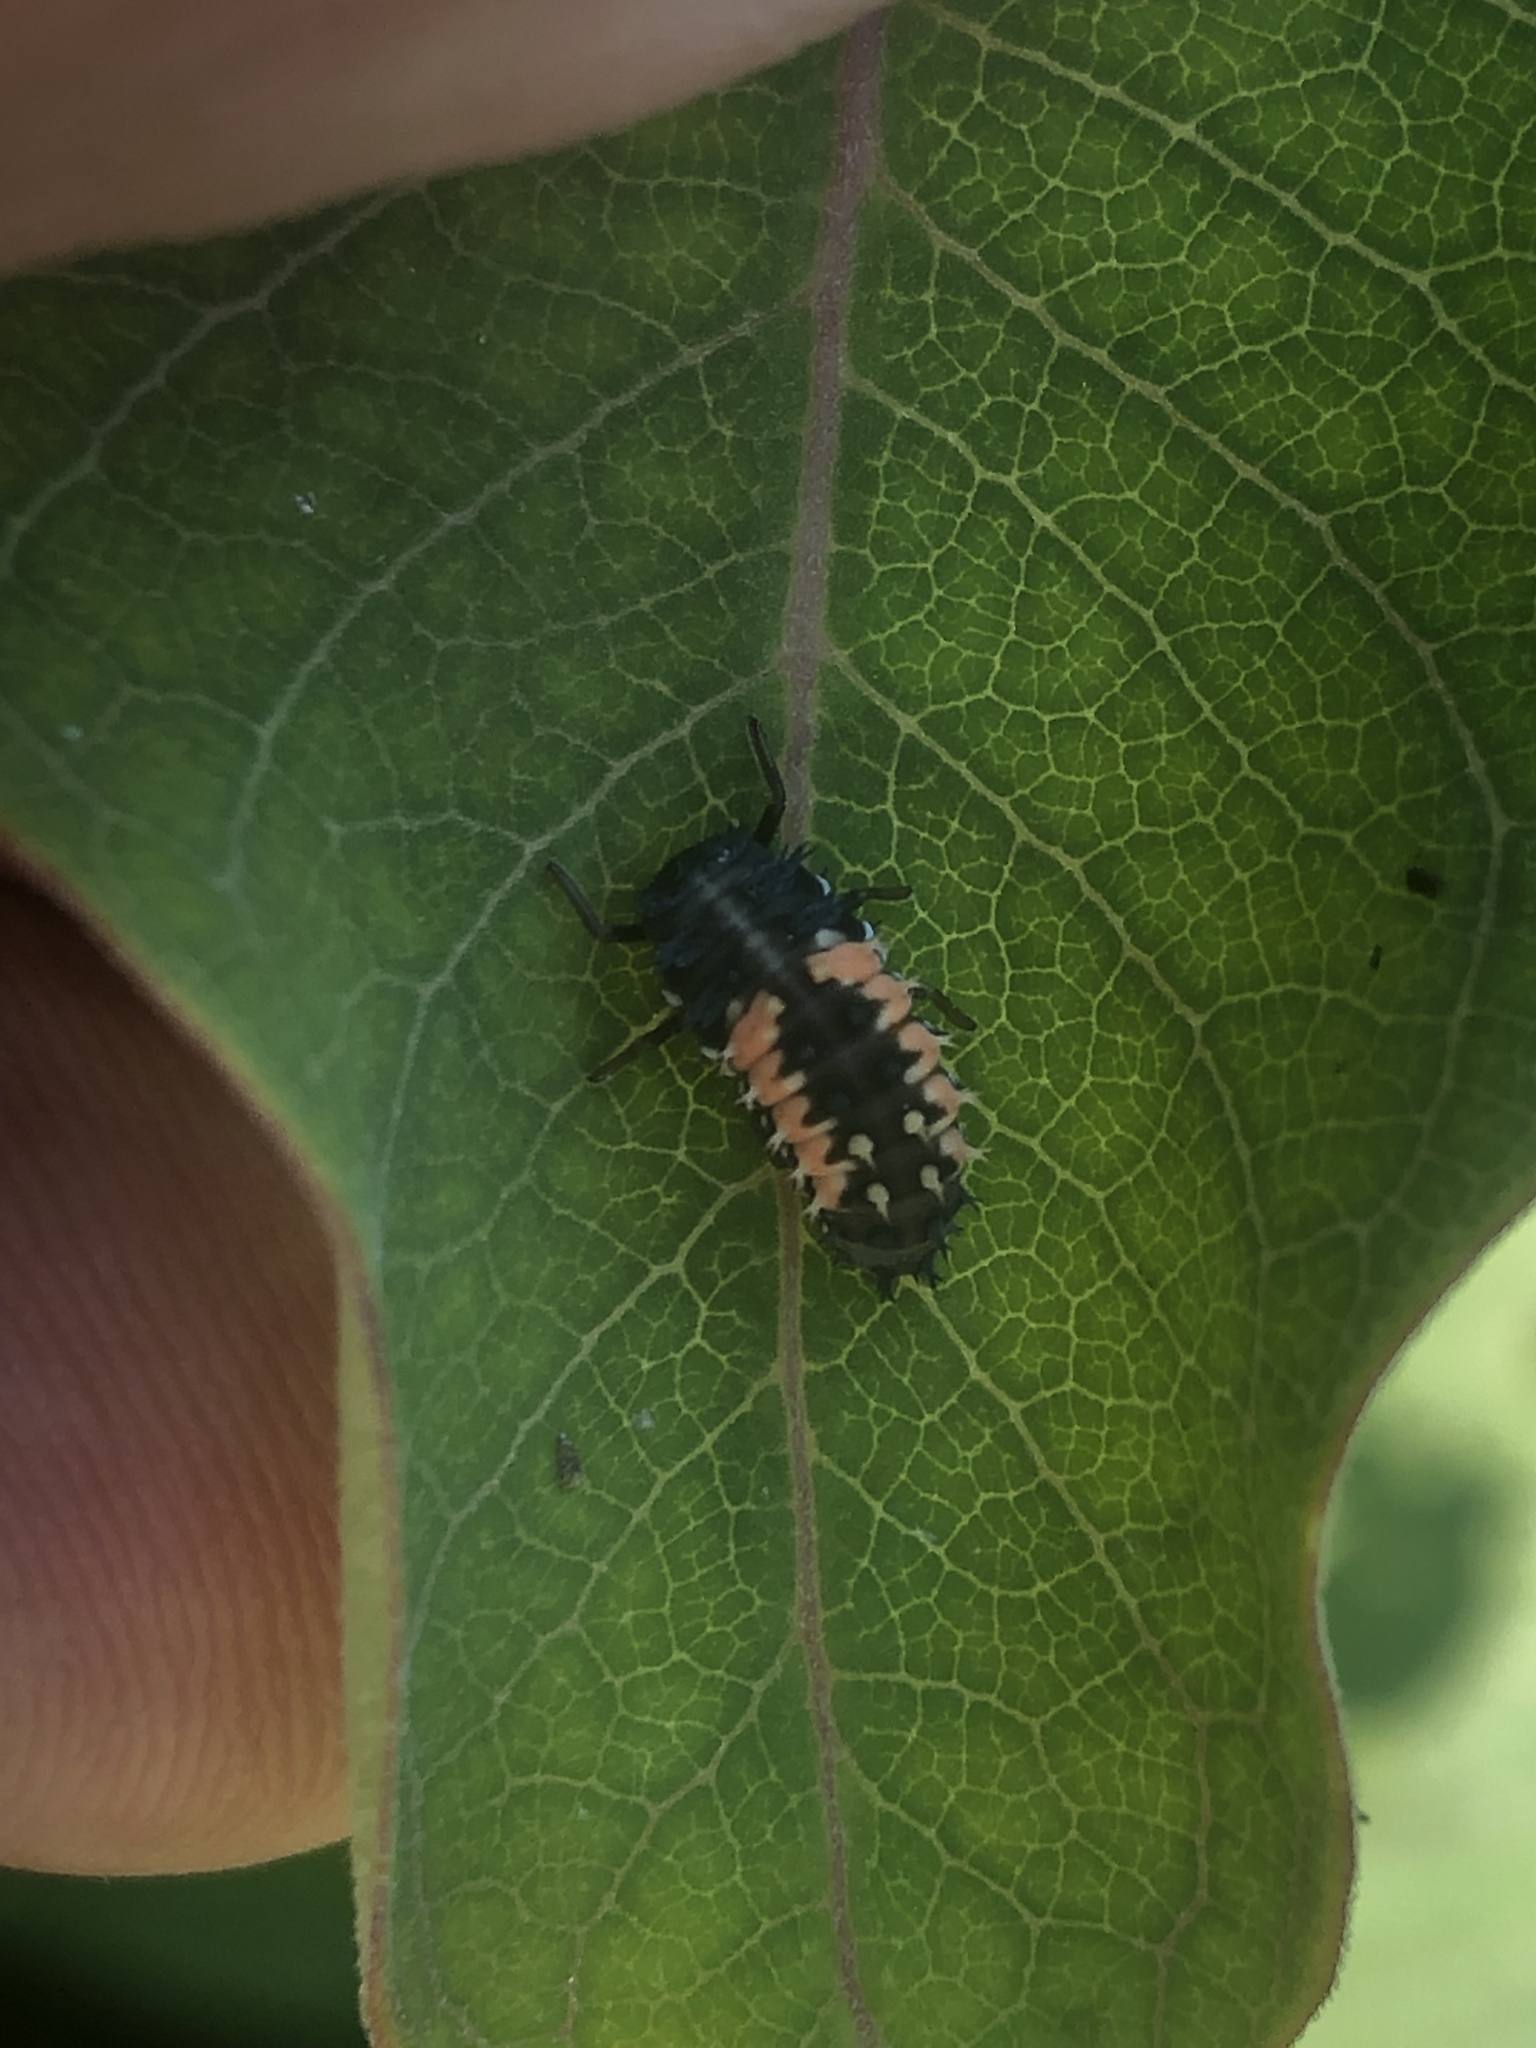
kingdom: Animalia
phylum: Arthropoda
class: Insecta
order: Coleoptera
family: Coccinellidae
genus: Harmonia
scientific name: Harmonia axyridis
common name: Harlequin ladybird
